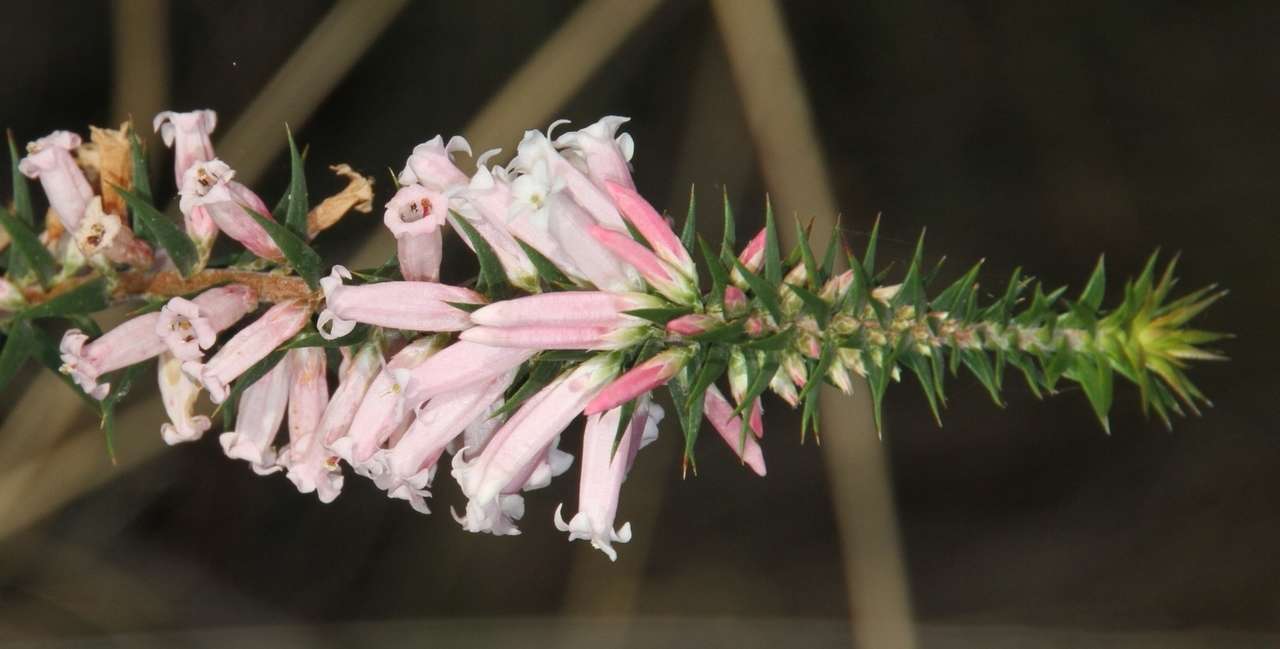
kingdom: Plantae
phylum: Tracheophyta
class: Magnoliopsida
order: Ericales
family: Ericaceae
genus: Epacris
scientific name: Epacris impressa
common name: Common-heath
